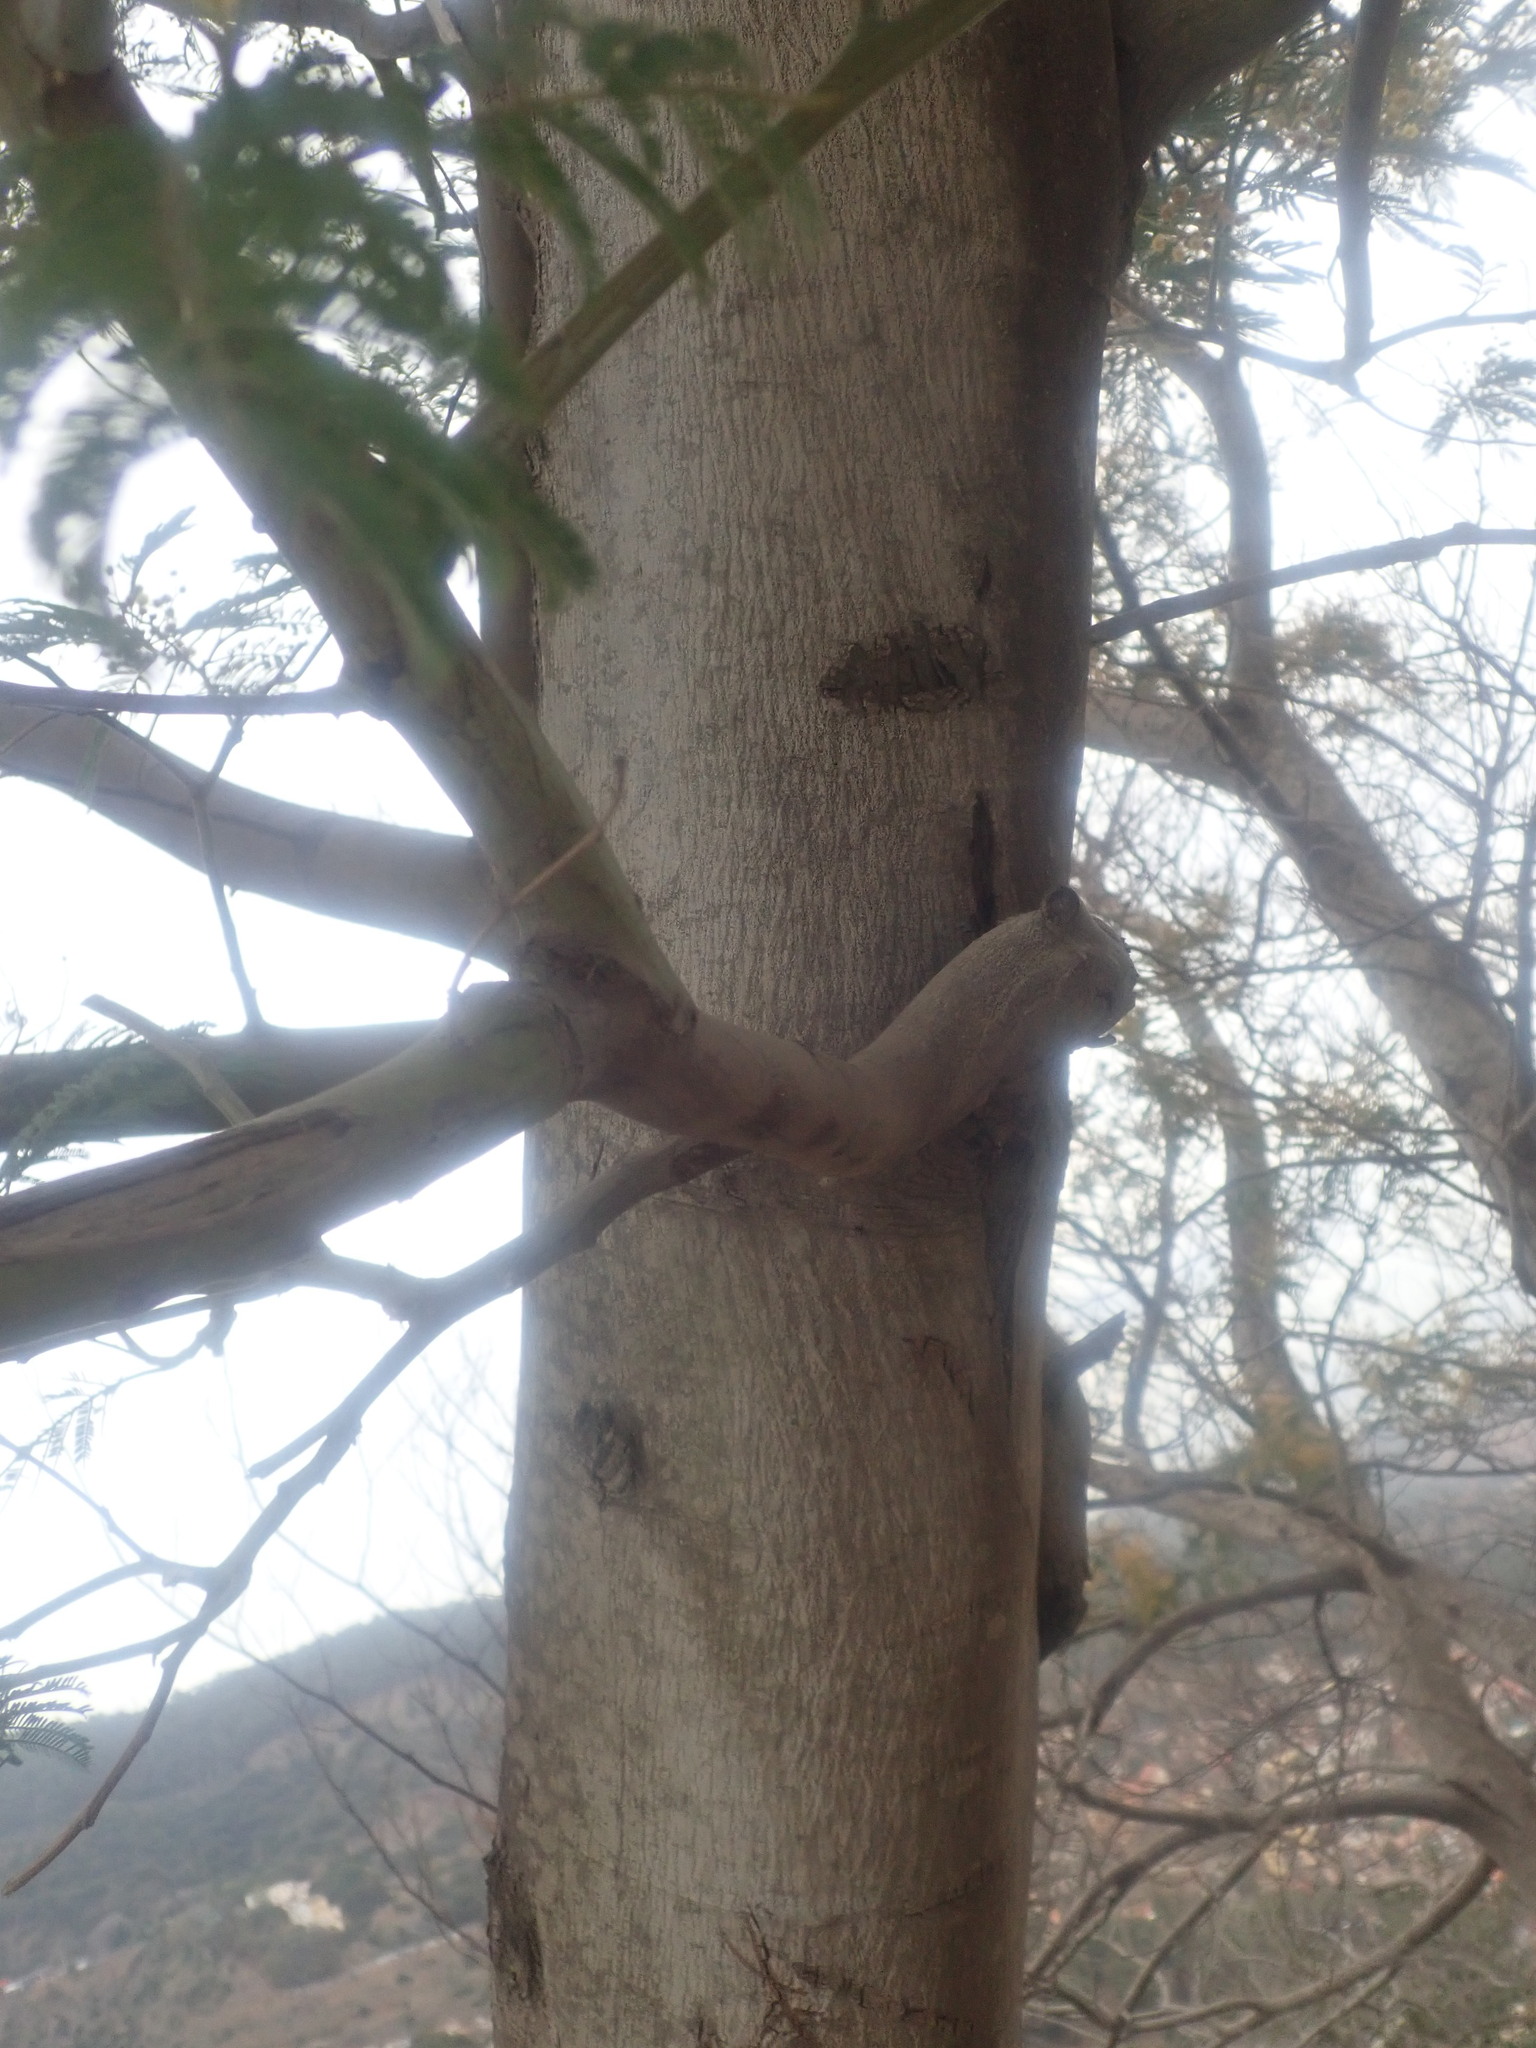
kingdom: Plantae
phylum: Tracheophyta
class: Magnoliopsida
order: Fabales
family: Fabaceae
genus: Acacia
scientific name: Acacia dealbata
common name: Silver wattle
